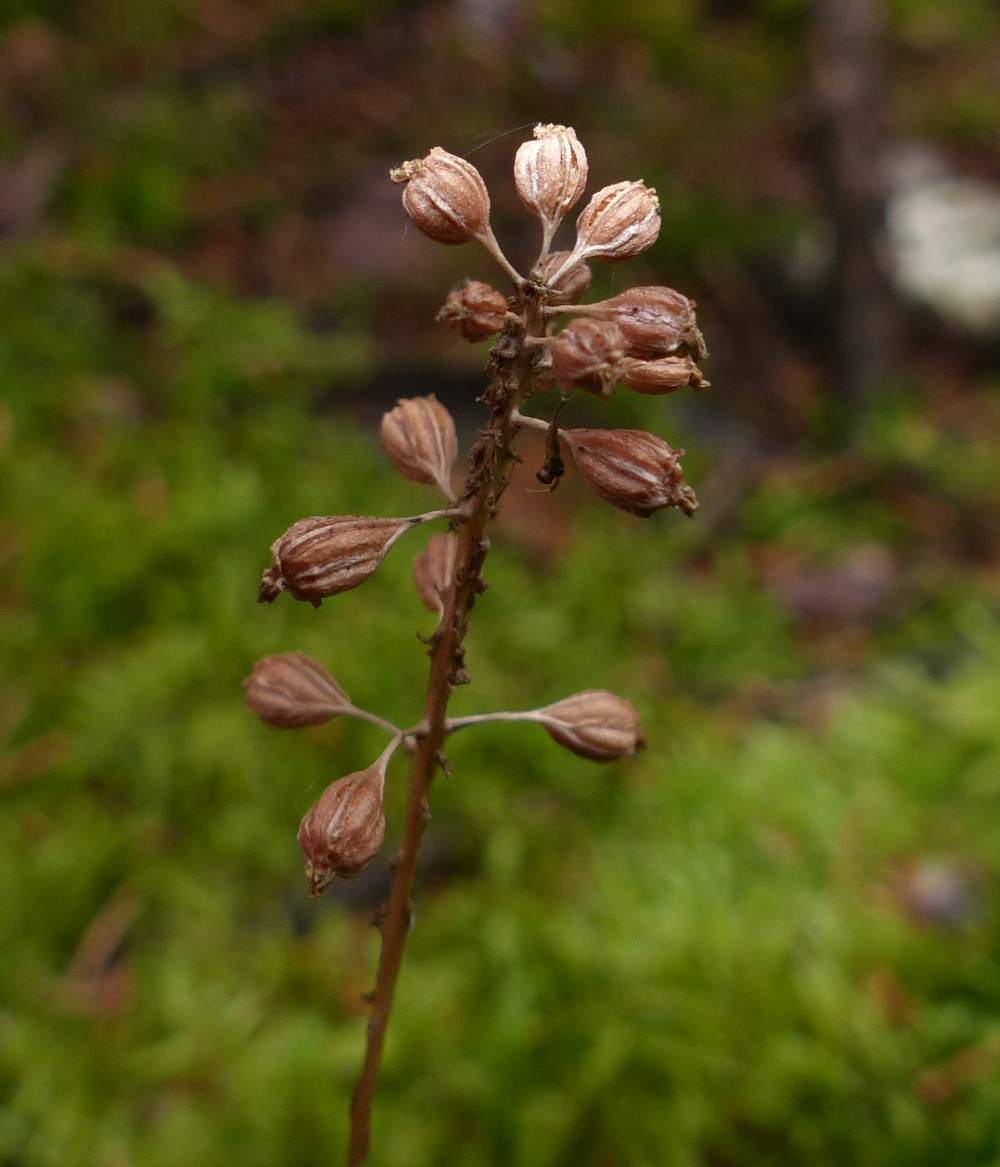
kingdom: Plantae
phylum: Tracheophyta
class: Liliopsida
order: Asparagales
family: Orchidaceae
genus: Malaxis
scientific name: Malaxis unifolia
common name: Green adder's-mouth
